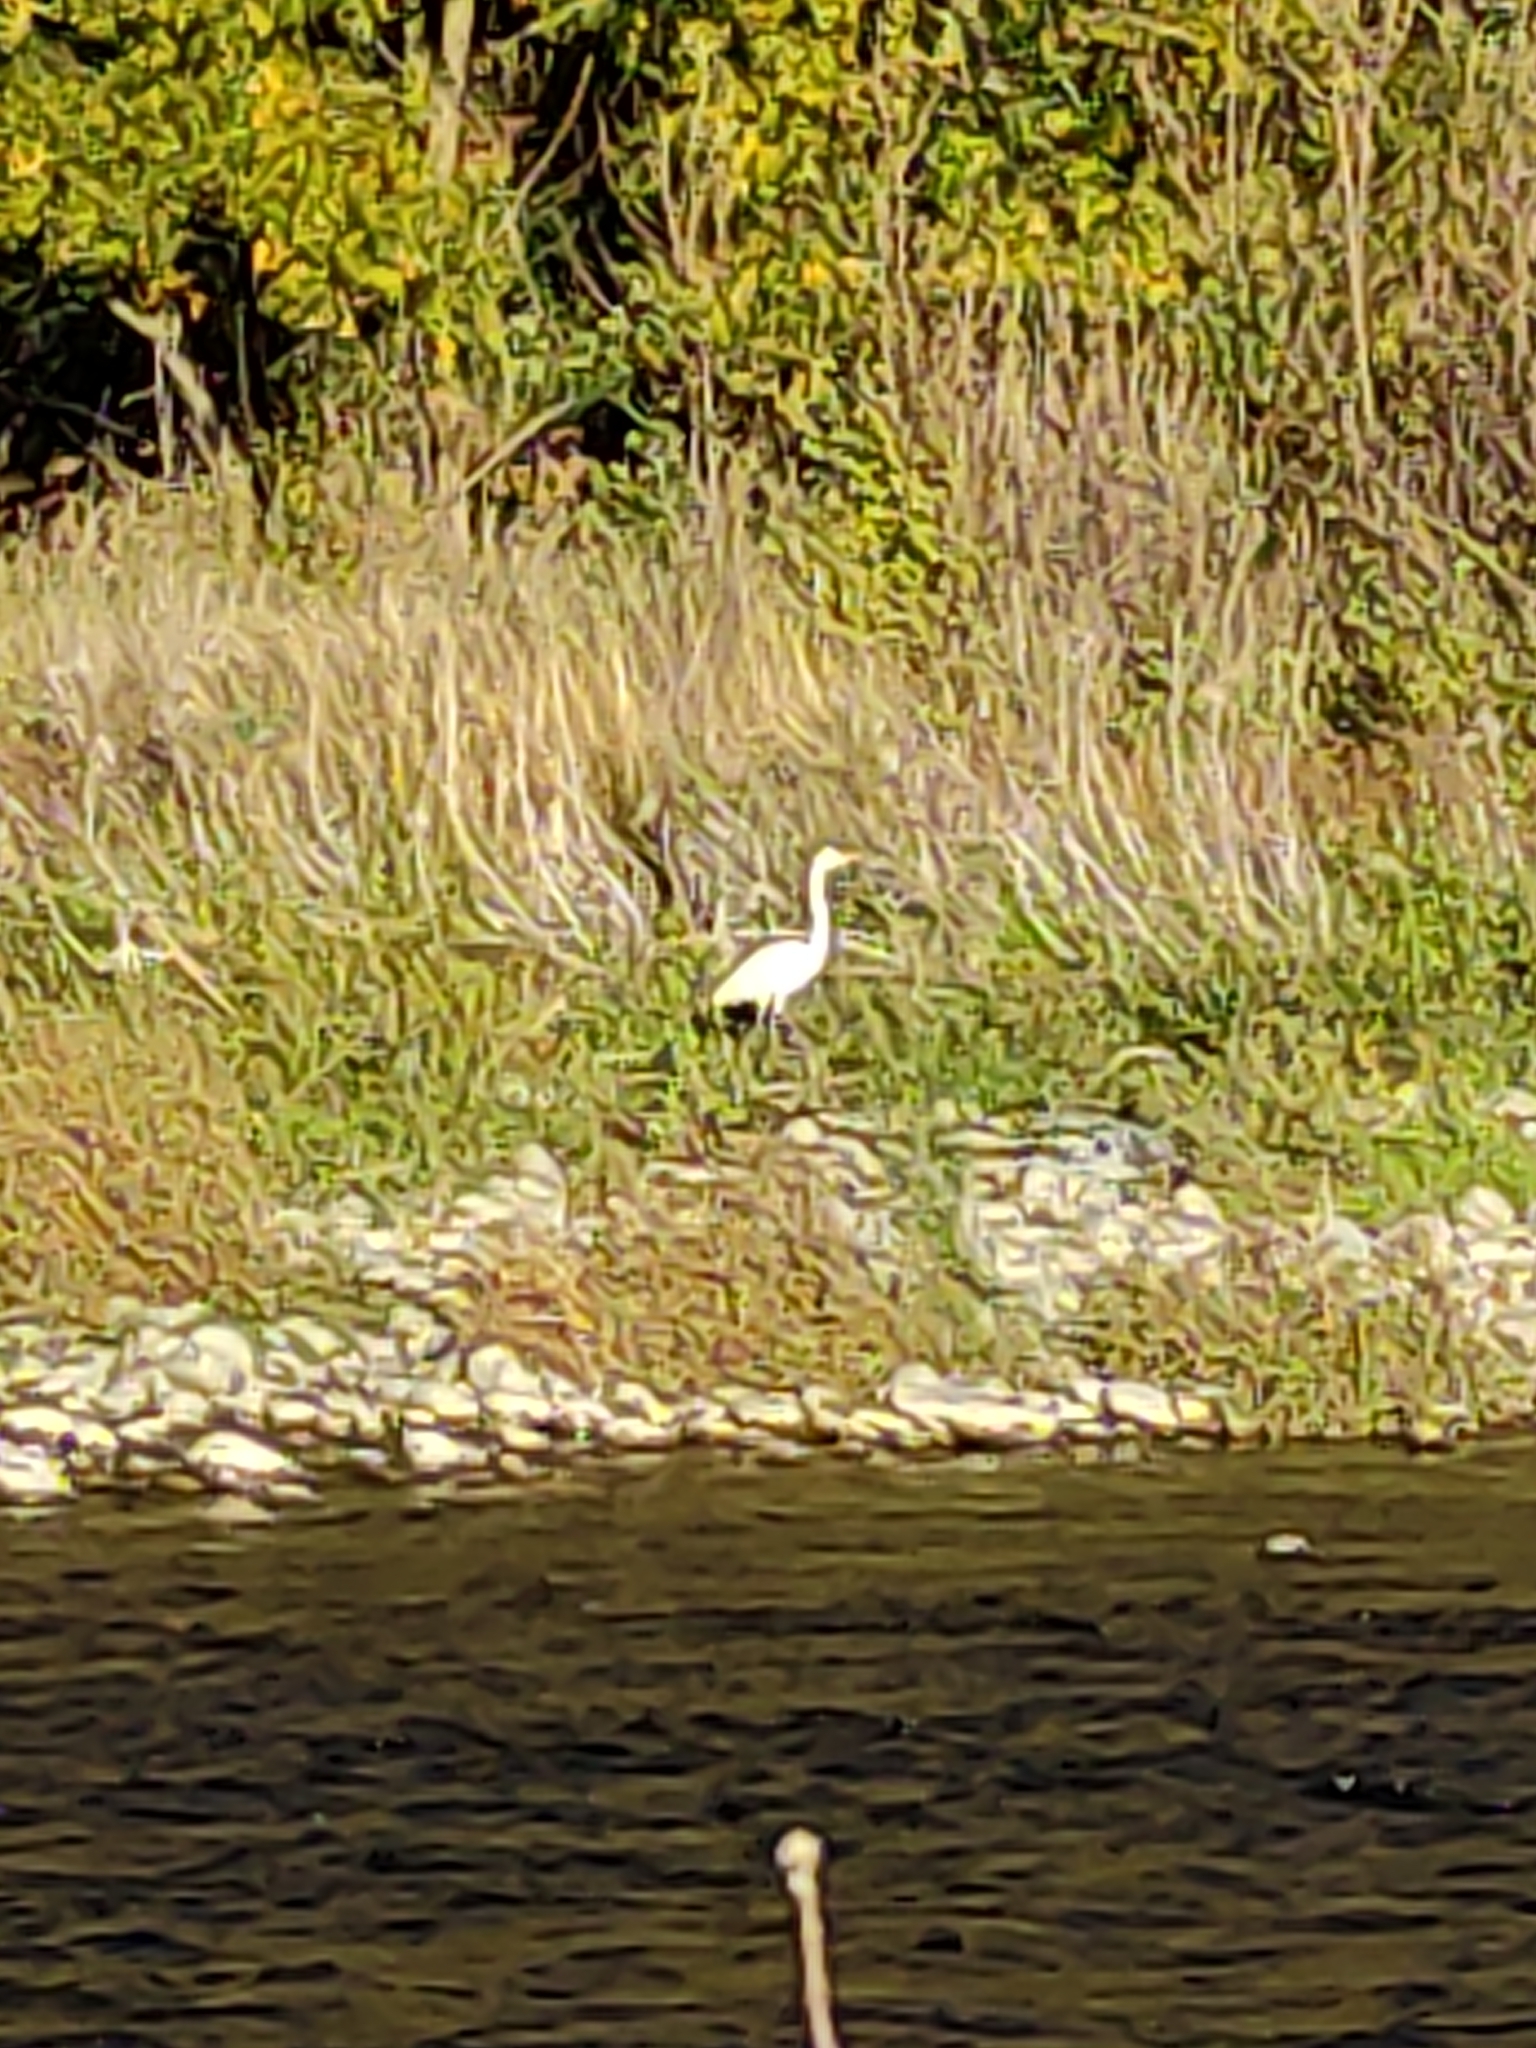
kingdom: Animalia
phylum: Chordata
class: Aves
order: Pelecaniformes
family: Ardeidae
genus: Ardea
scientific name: Ardea modesta
